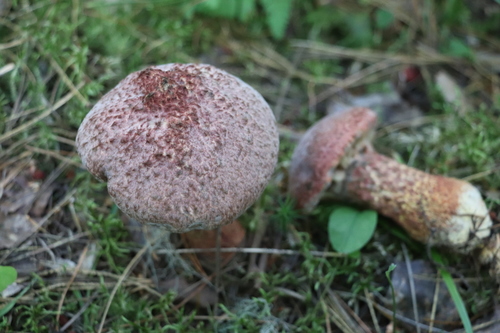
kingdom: Fungi
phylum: Basidiomycota
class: Agaricomycetes
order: Boletales
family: Suillaceae
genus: Suillus
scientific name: Suillus spraguei
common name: Painted suillus
